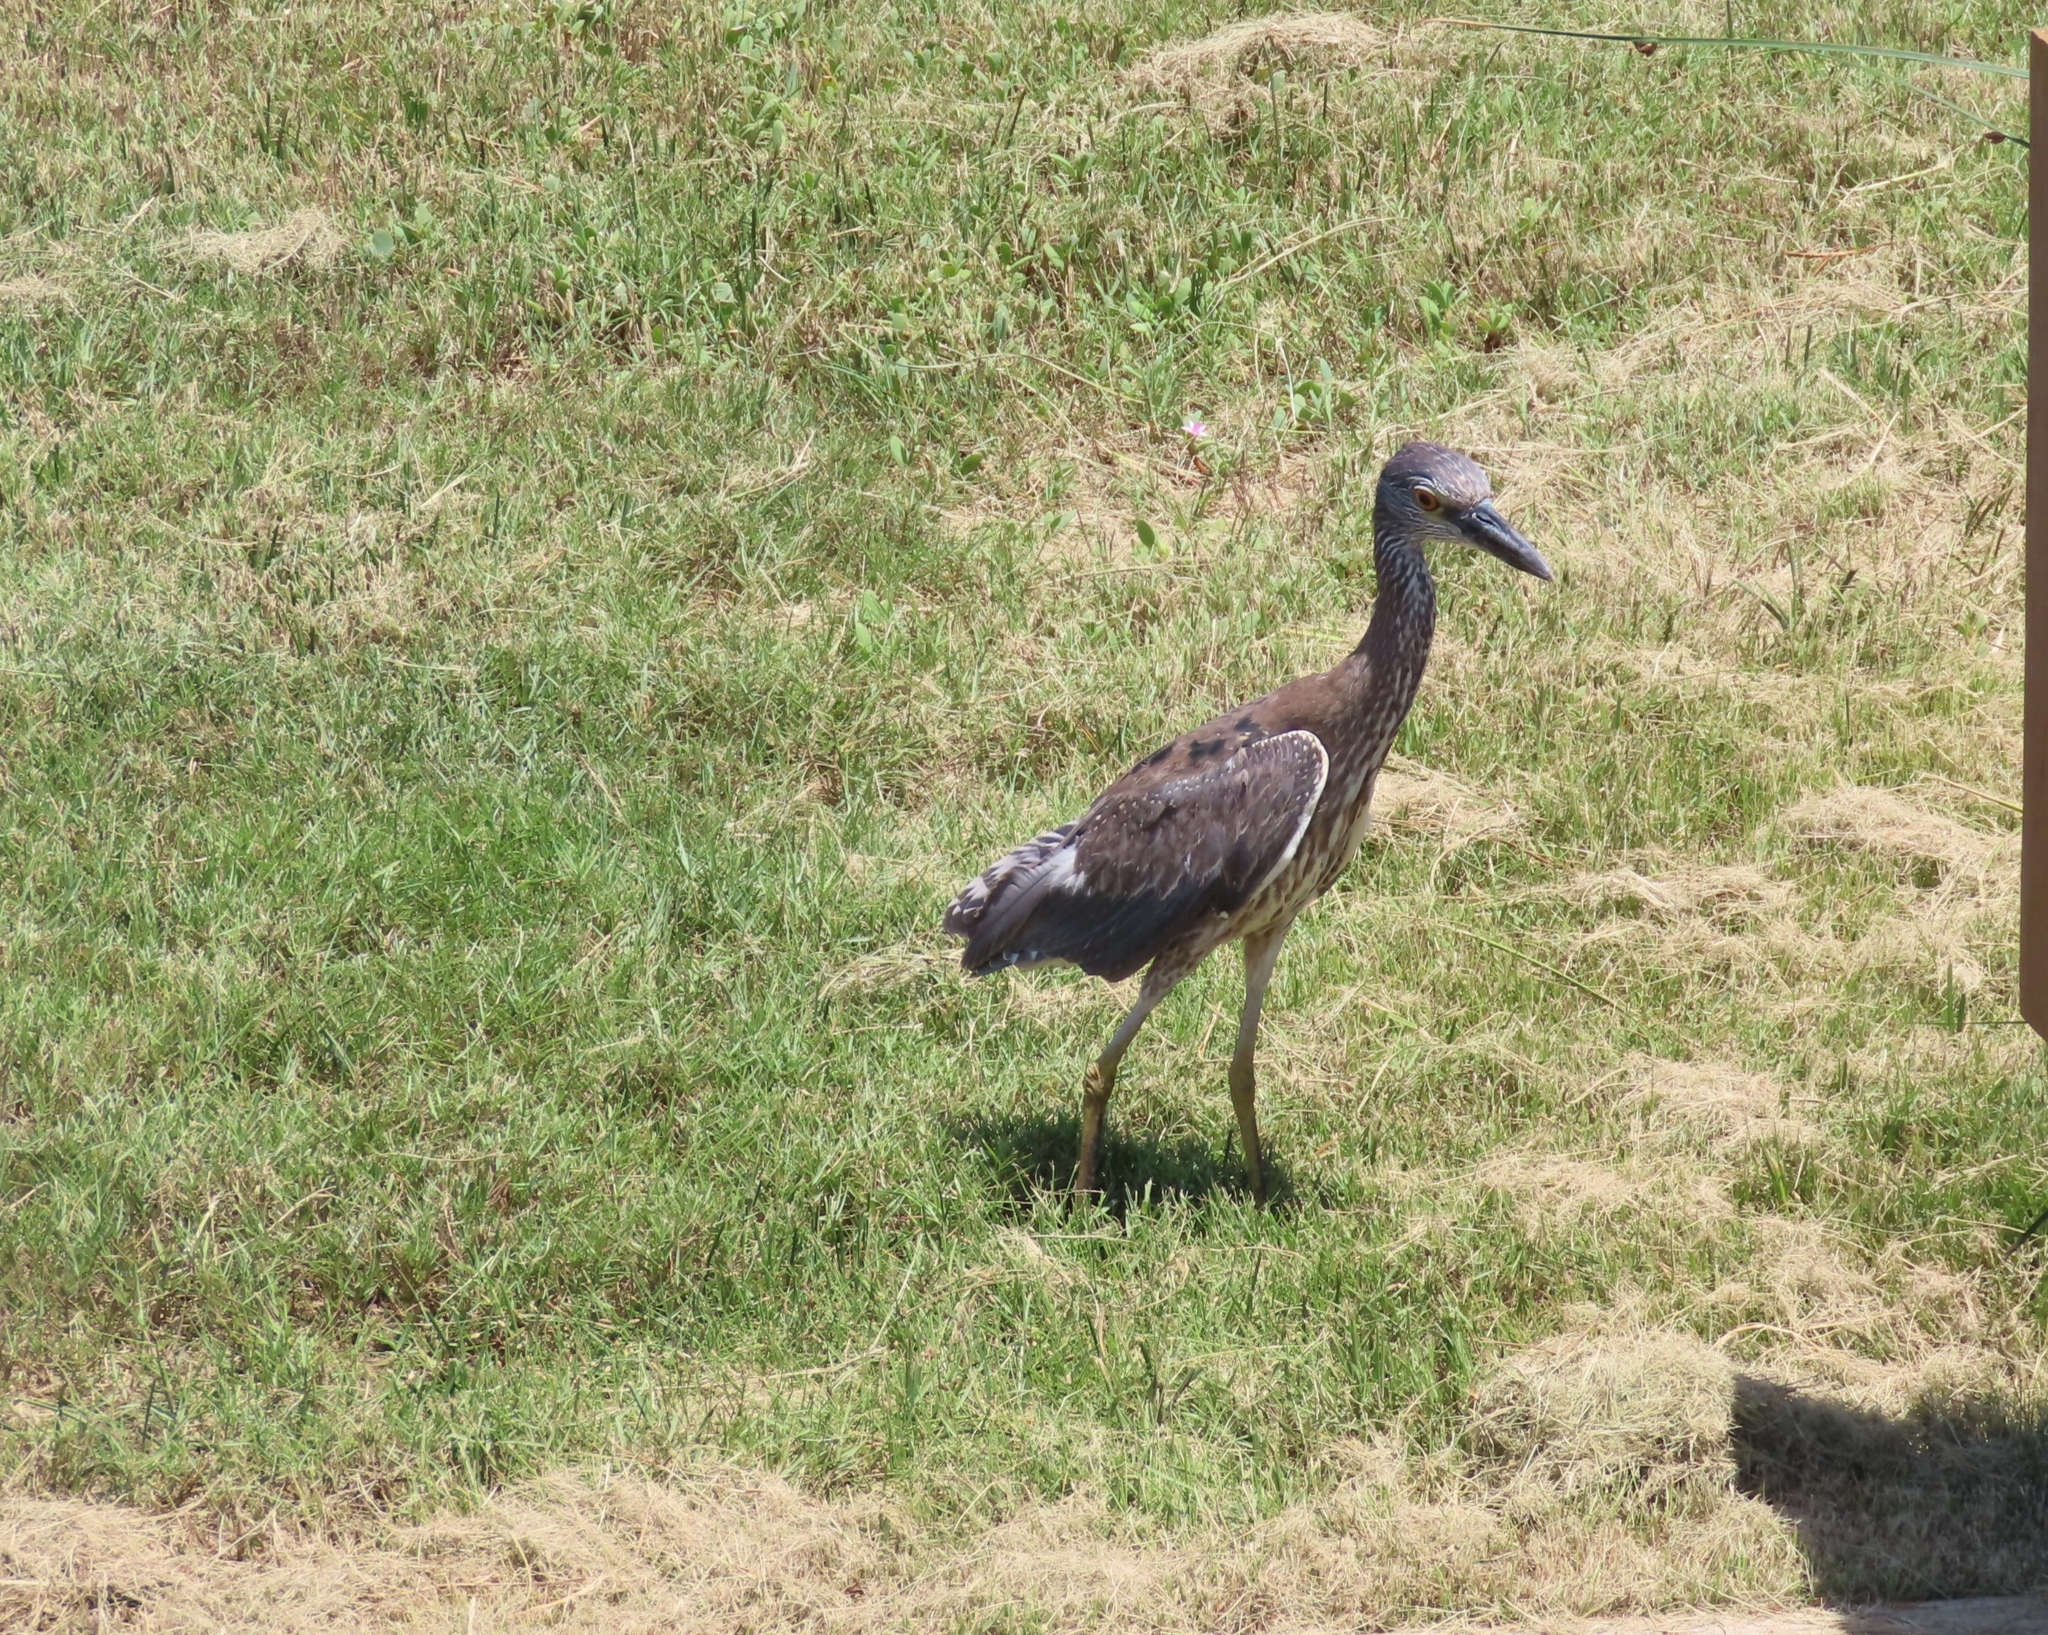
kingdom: Animalia
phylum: Chordata
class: Aves
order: Pelecaniformes
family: Ardeidae
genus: Nyctanassa
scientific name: Nyctanassa violacea
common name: Yellow-crowned night heron
